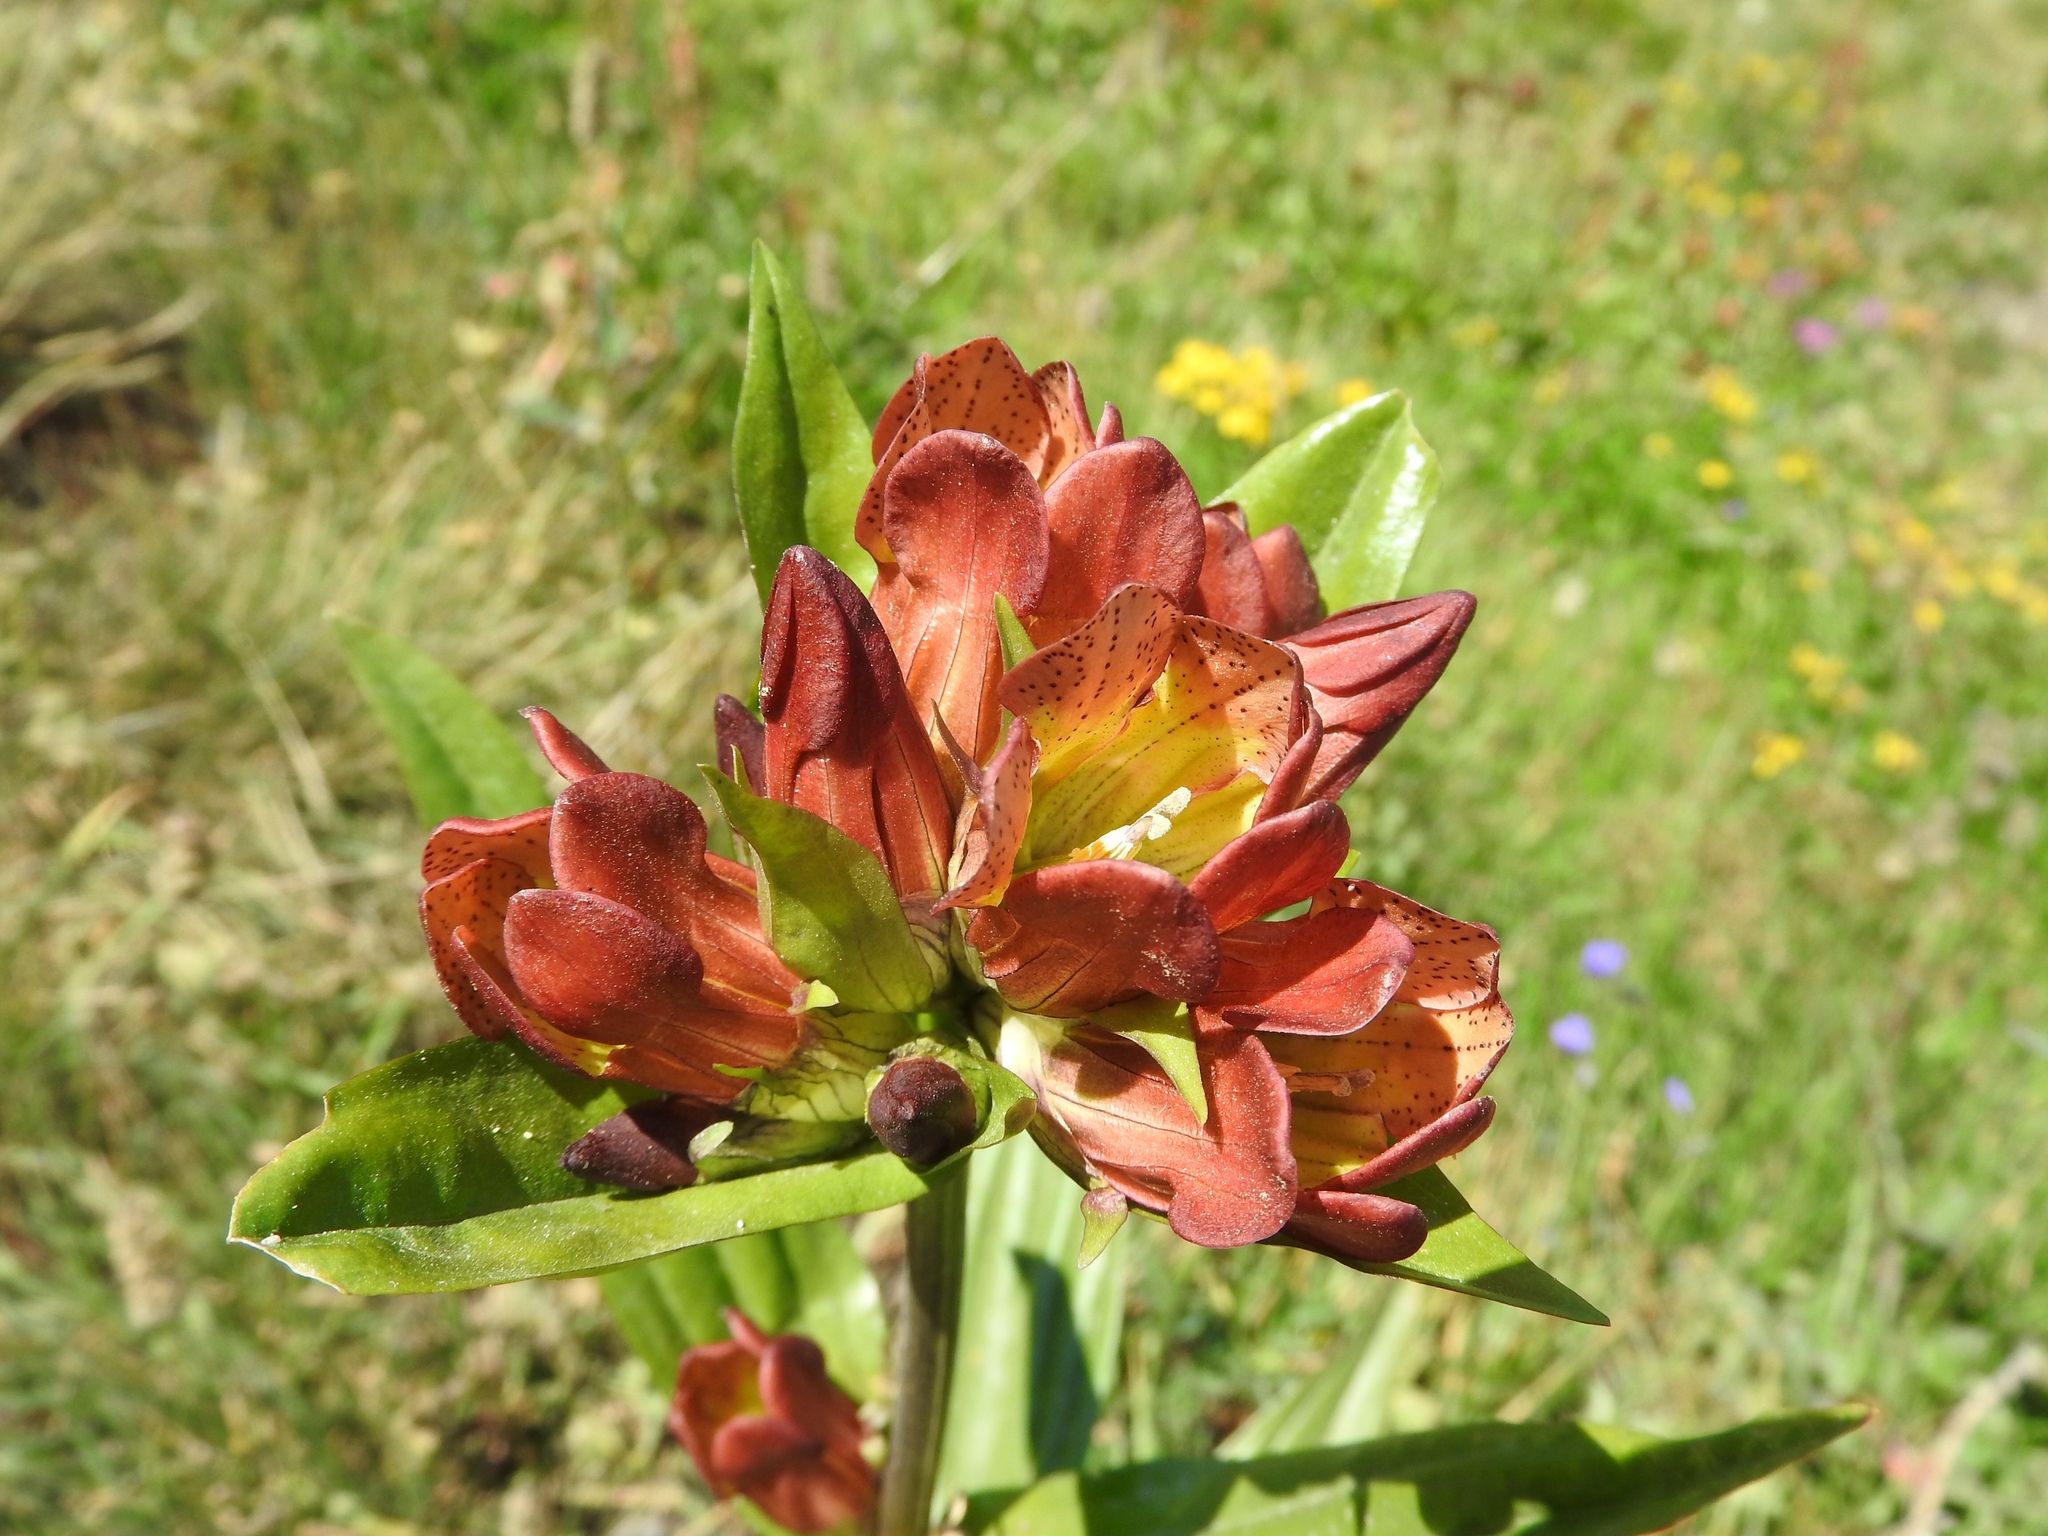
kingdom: Plantae
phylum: Tracheophyta
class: Magnoliopsida
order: Gentianales
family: Gentianaceae
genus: Gentiana
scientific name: Gentiana purpurea
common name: Purple gentian
